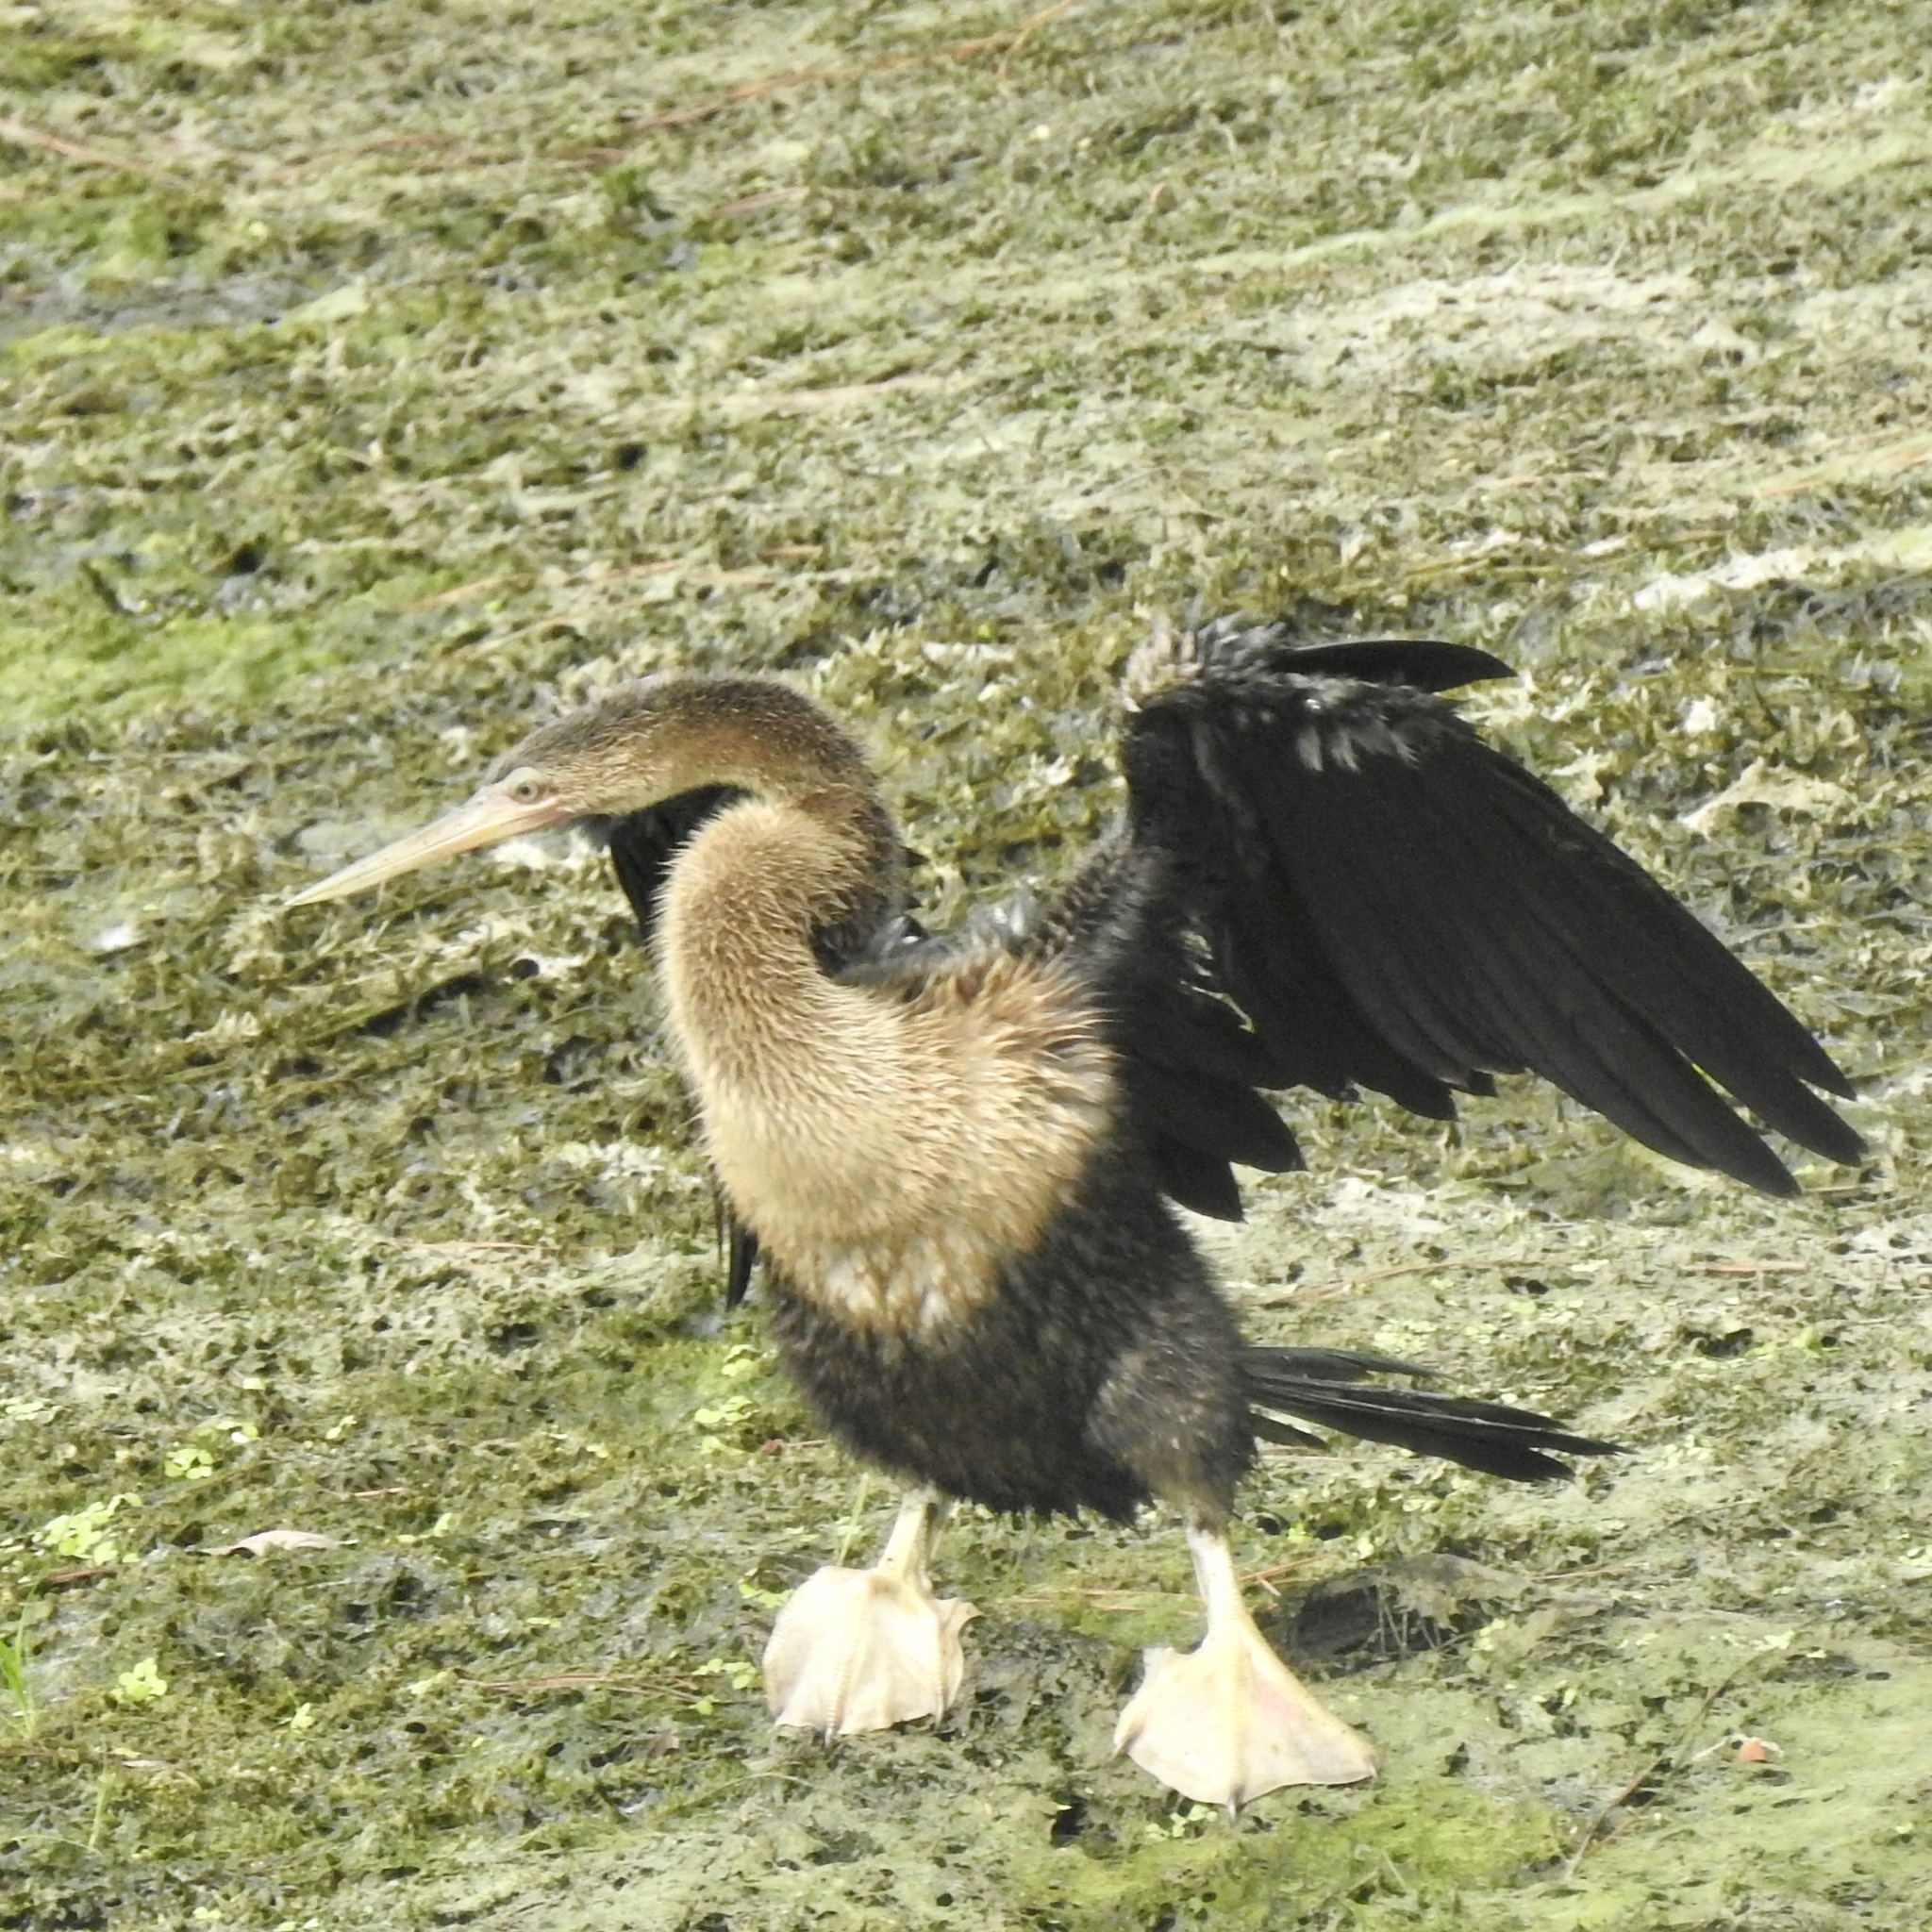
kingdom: Animalia
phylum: Chordata
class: Aves
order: Suliformes
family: Anhingidae
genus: Anhinga
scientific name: Anhinga anhinga
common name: Anhinga
